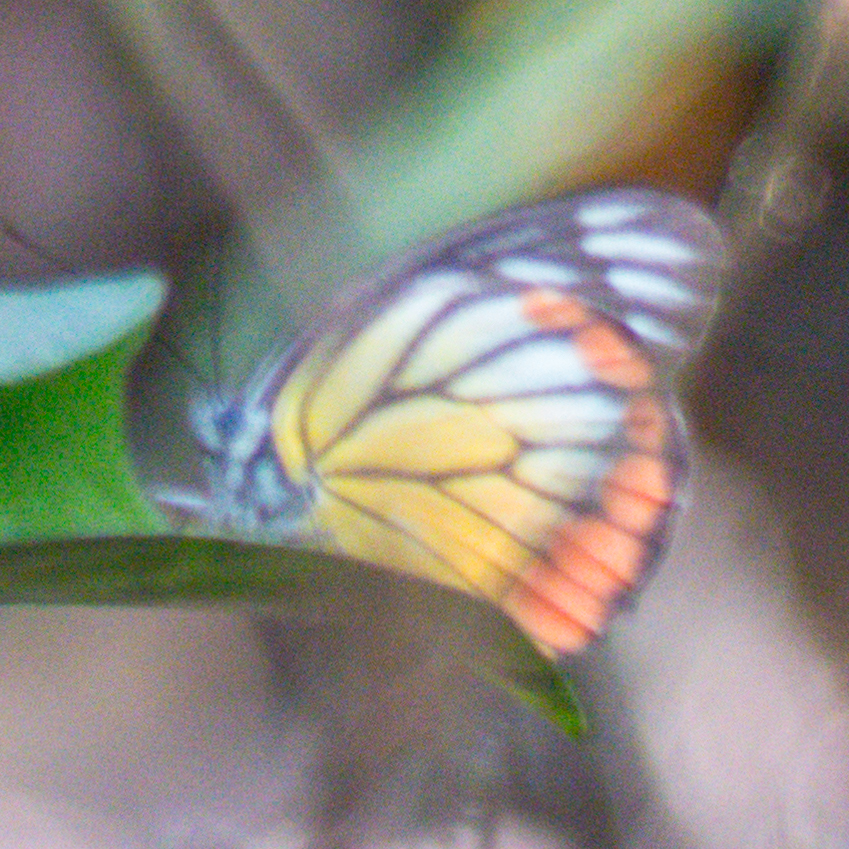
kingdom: Animalia
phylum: Arthropoda
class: Insecta
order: Lepidoptera
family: Pieridae
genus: Delias
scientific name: Delias hyparete
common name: Painted jezebel
